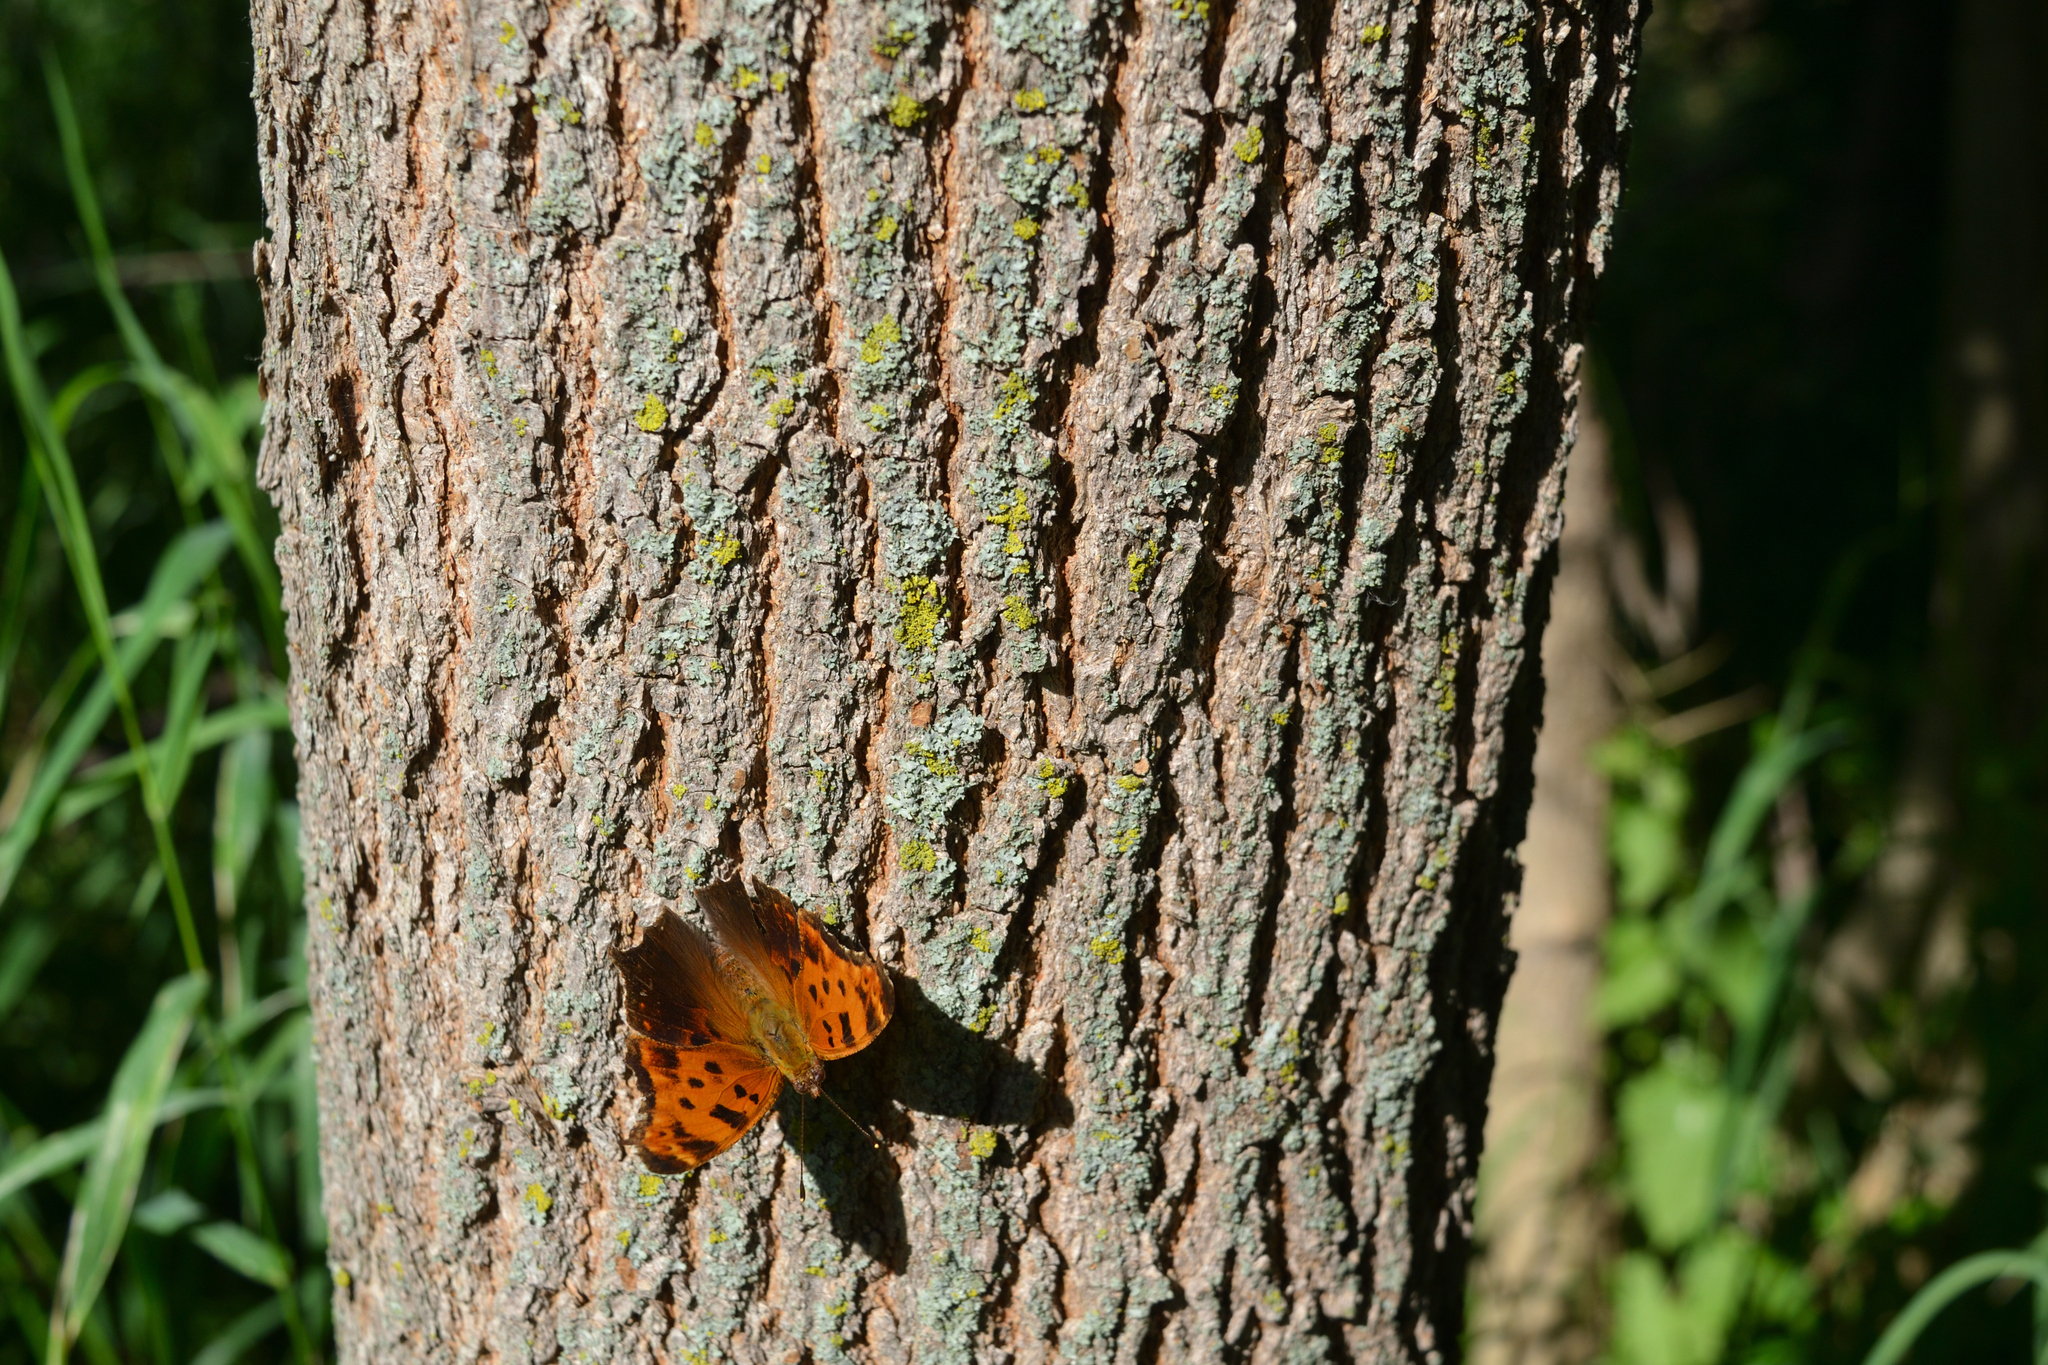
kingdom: Animalia
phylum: Arthropoda
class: Insecta
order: Lepidoptera
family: Nymphalidae
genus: Polygonia
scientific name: Polygonia comma
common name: Eastern comma
